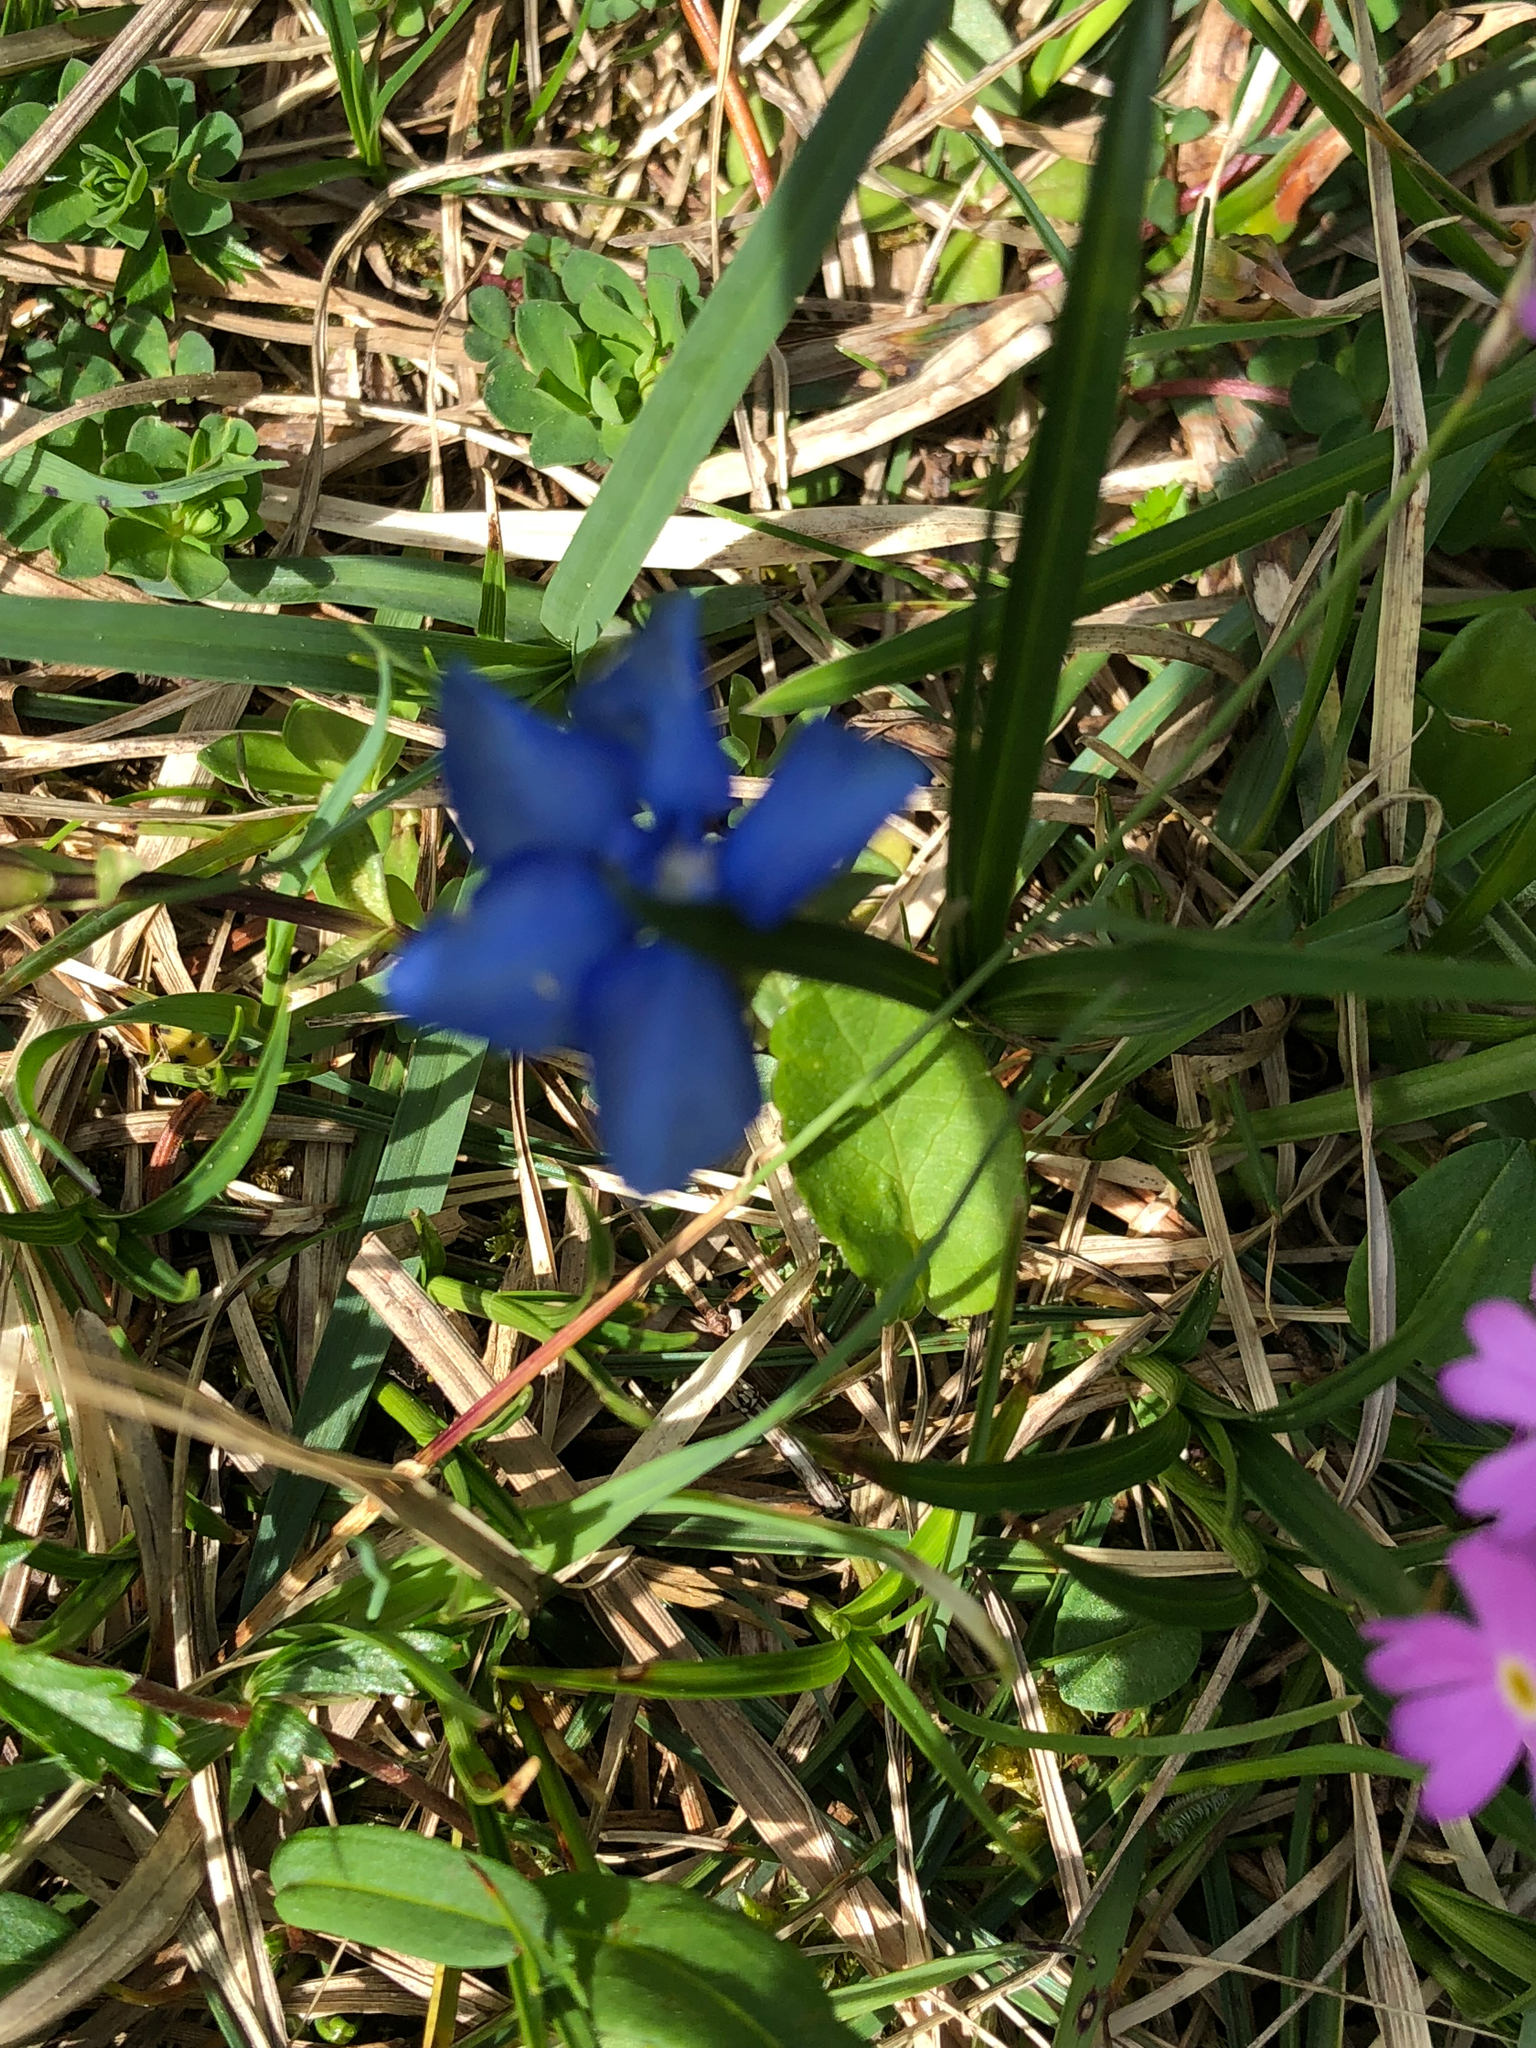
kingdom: Plantae
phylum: Tracheophyta
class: Magnoliopsida
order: Gentianales
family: Gentianaceae
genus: Gentiana
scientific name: Gentiana
